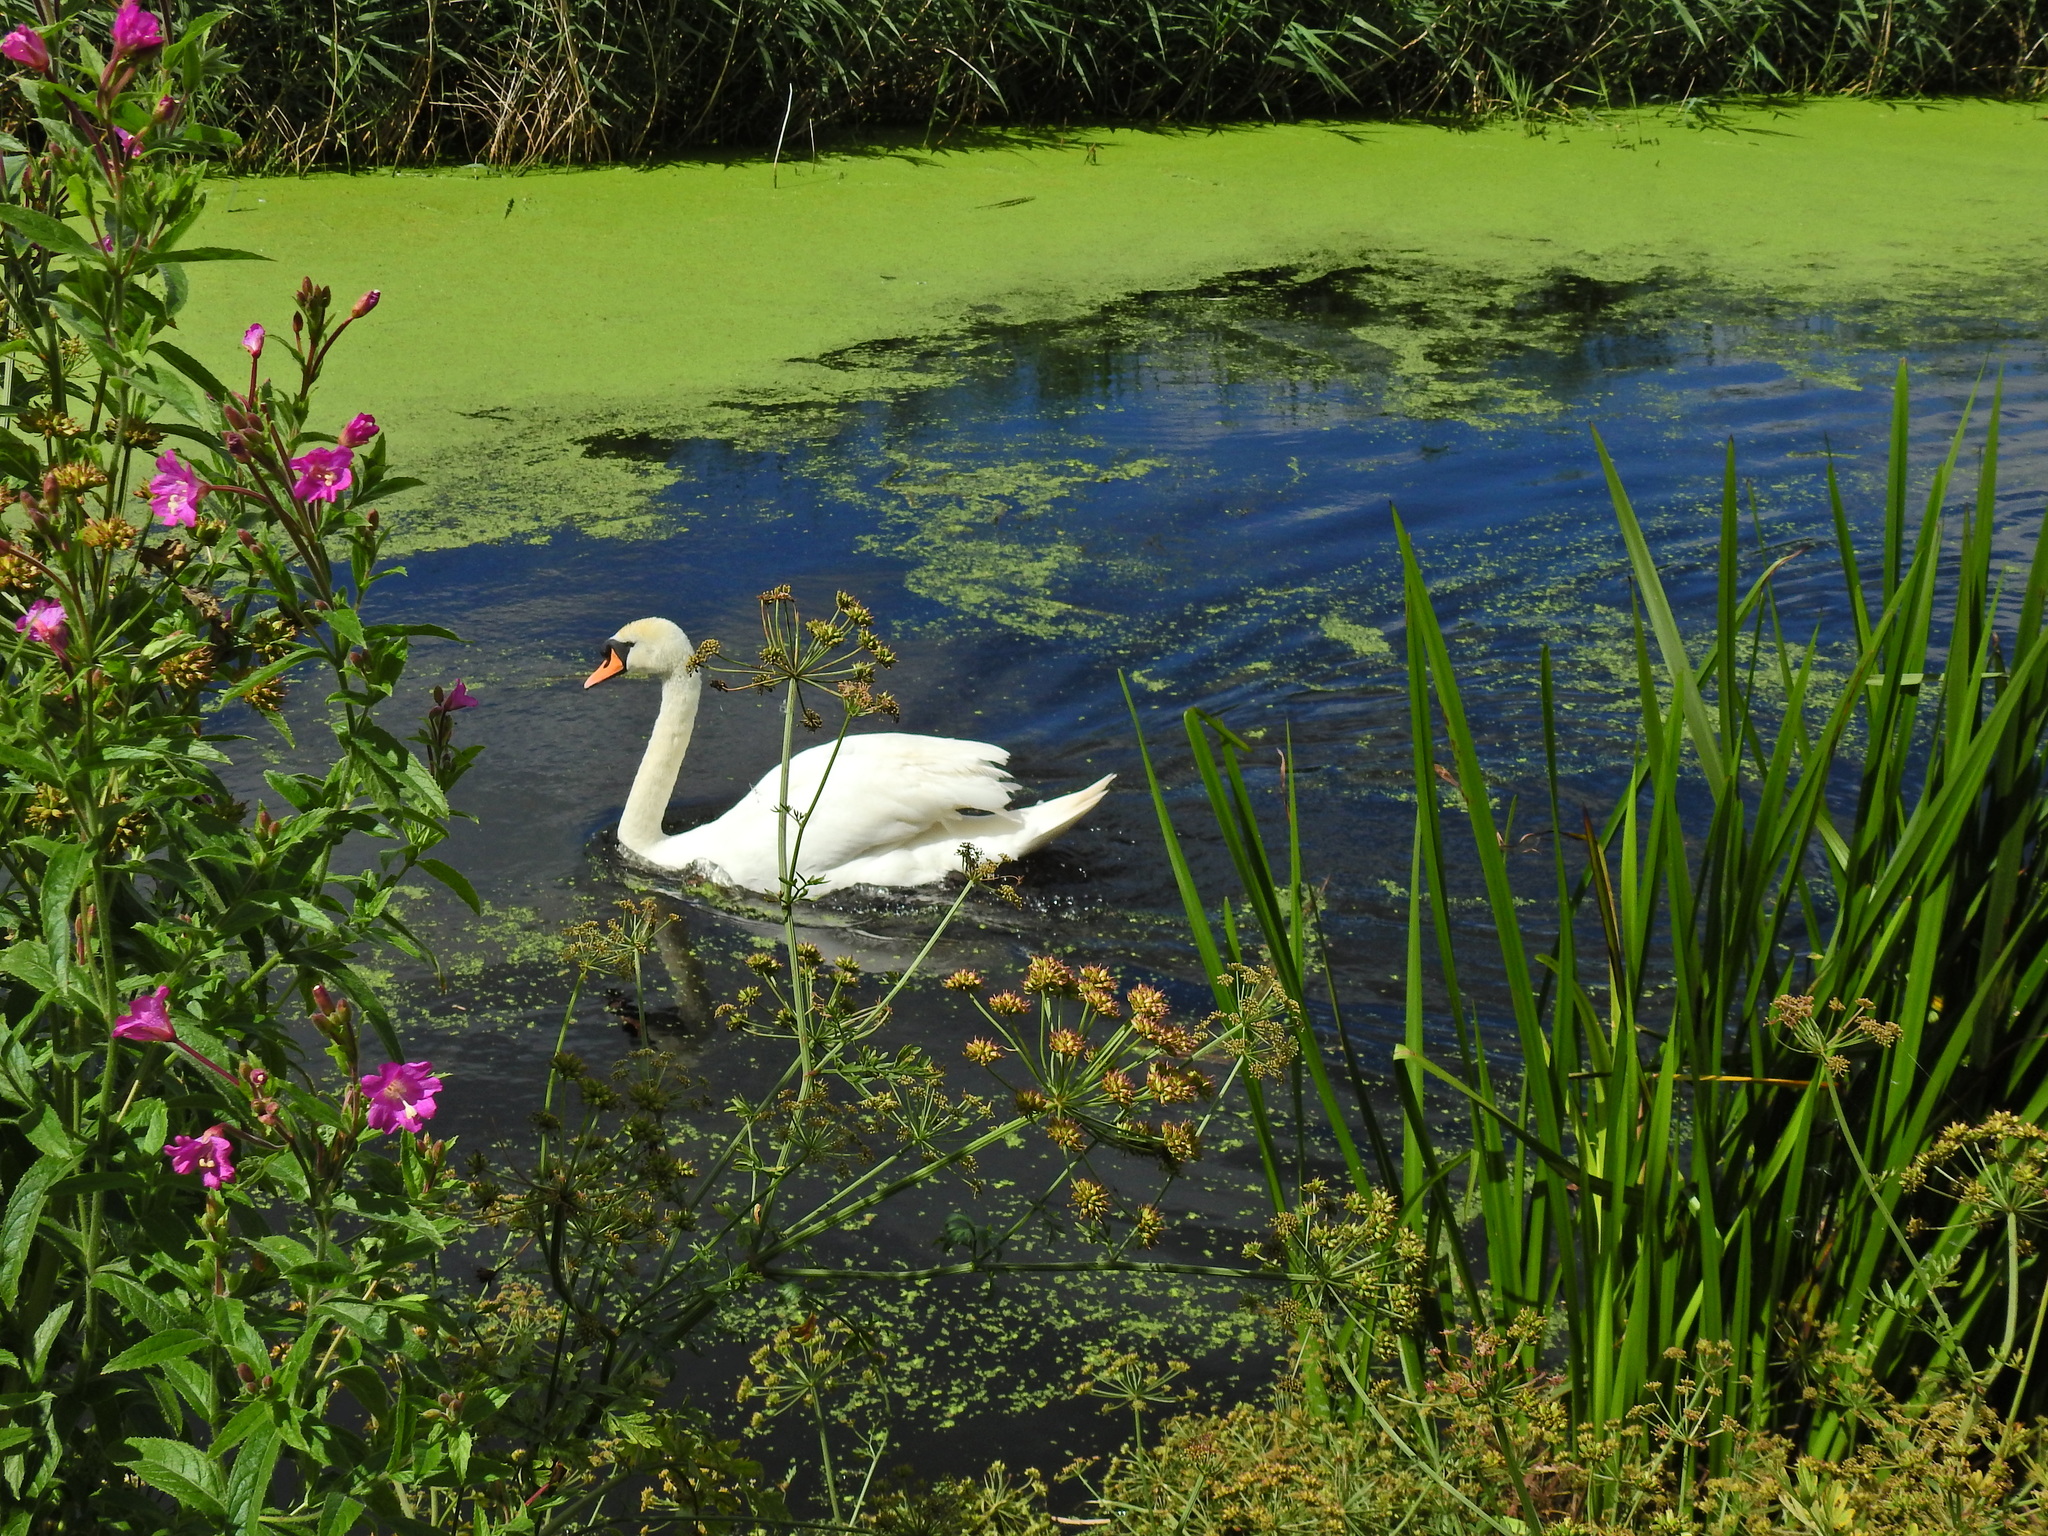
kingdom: Animalia
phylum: Chordata
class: Aves
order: Anseriformes
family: Anatidae
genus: Cygnus
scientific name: Cygnus olor
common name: Mute swan
